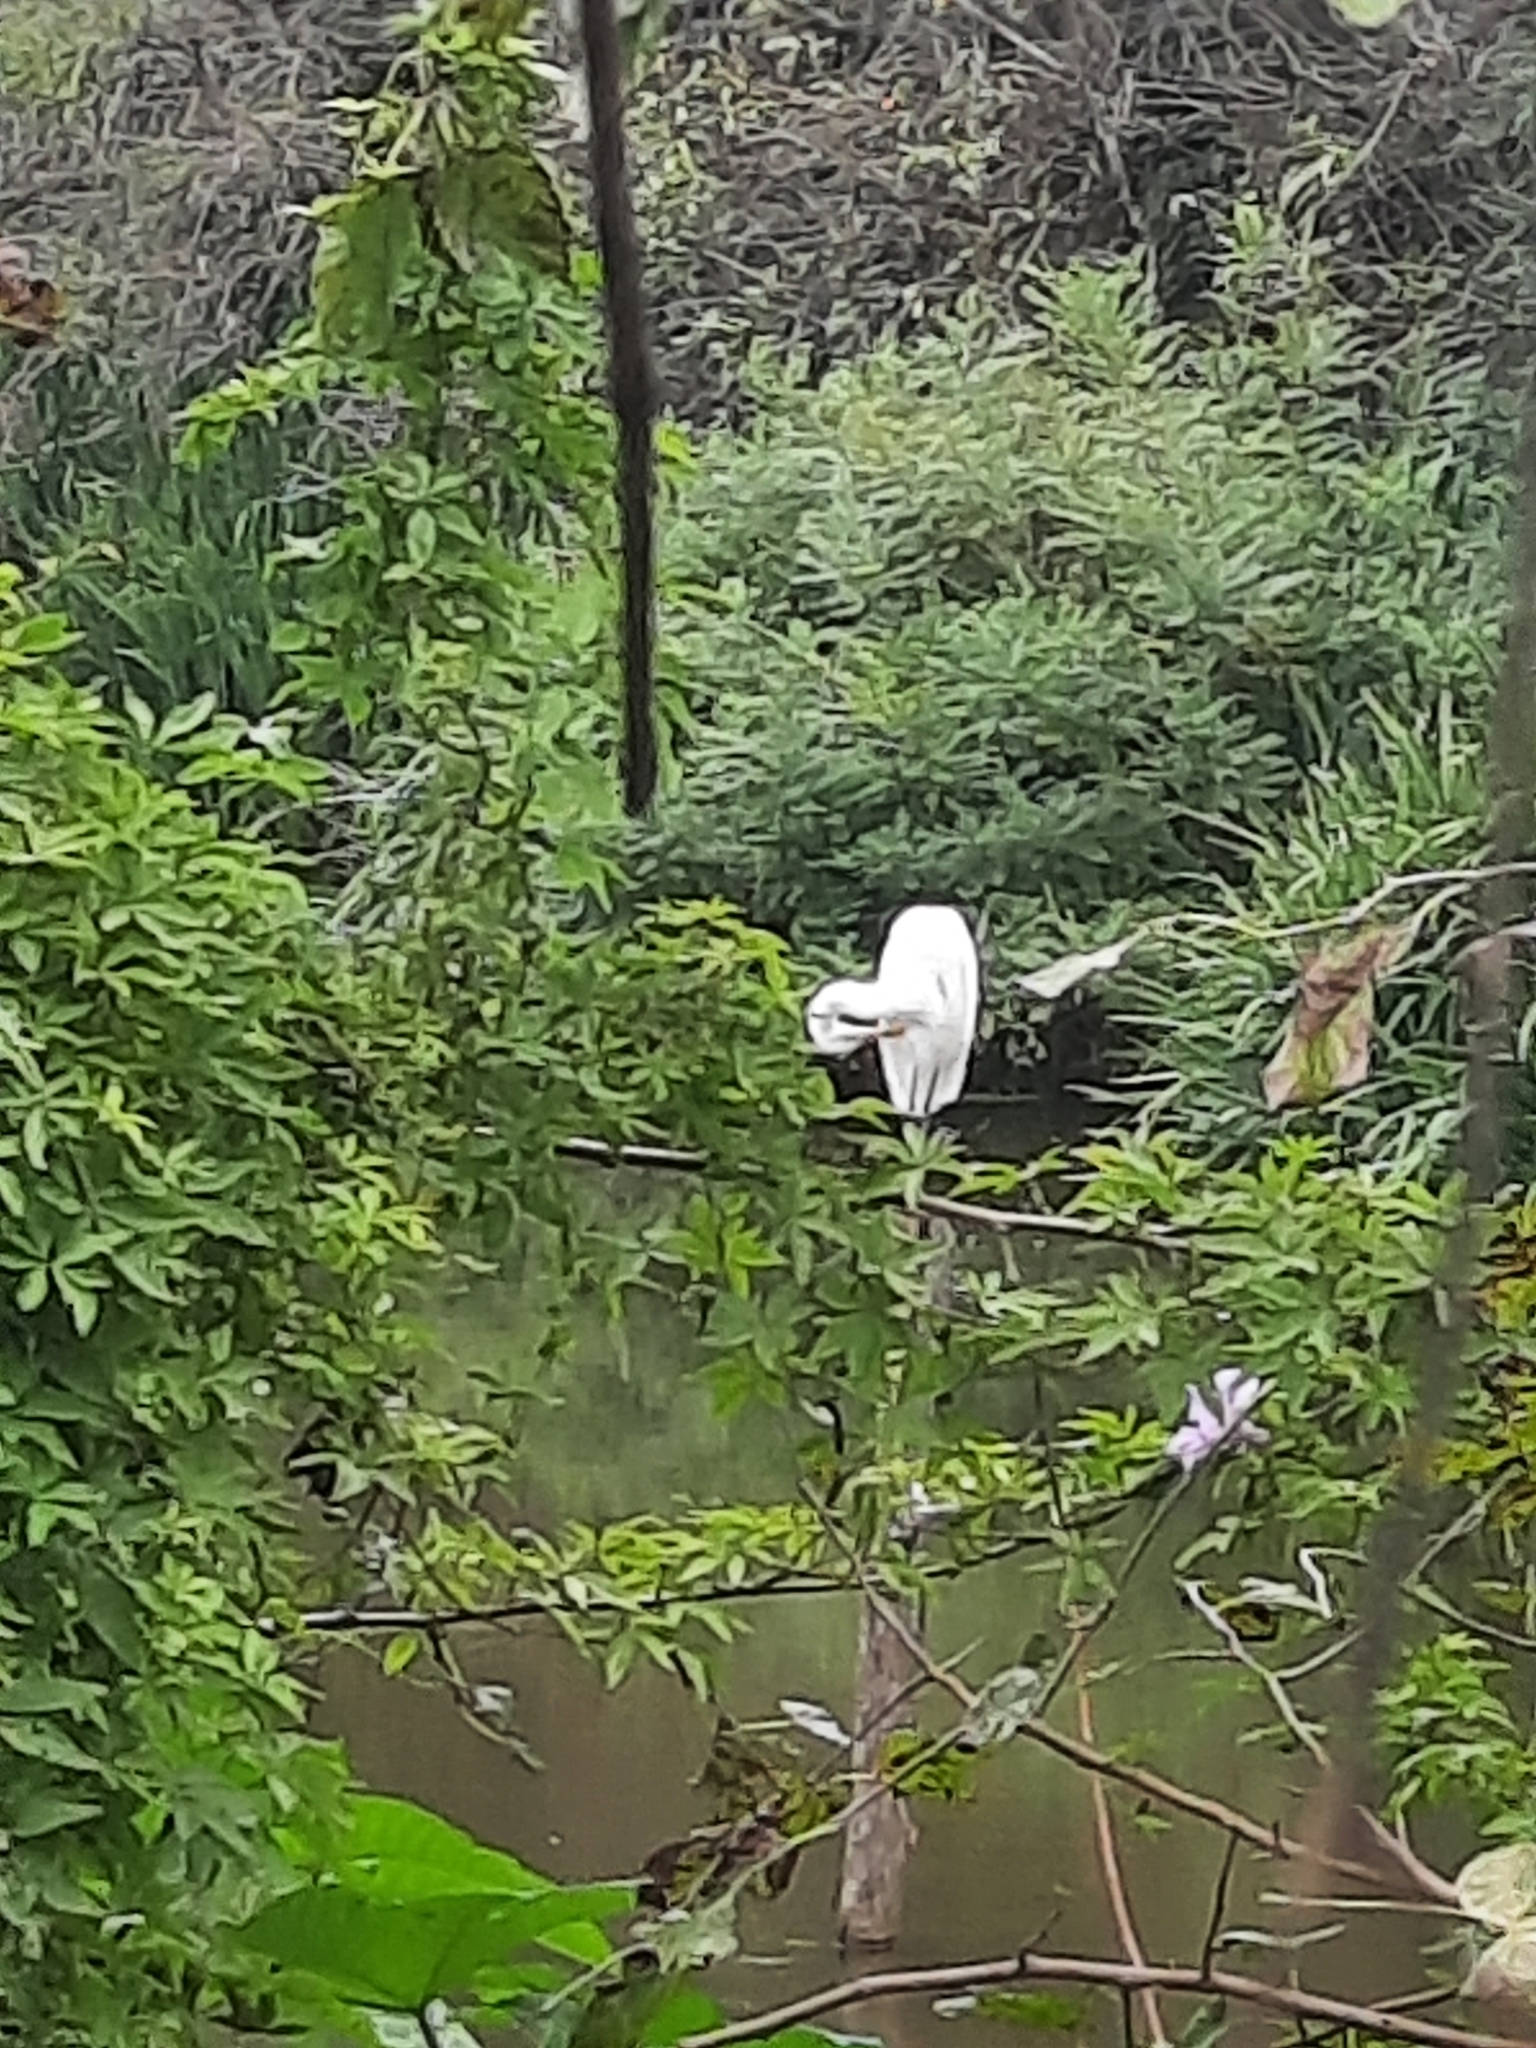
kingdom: Animalia
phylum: Chordata
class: Aves
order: Pelecaniformes
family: Ardeidae
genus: Ardea
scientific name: Ardea alba
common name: Great egret
